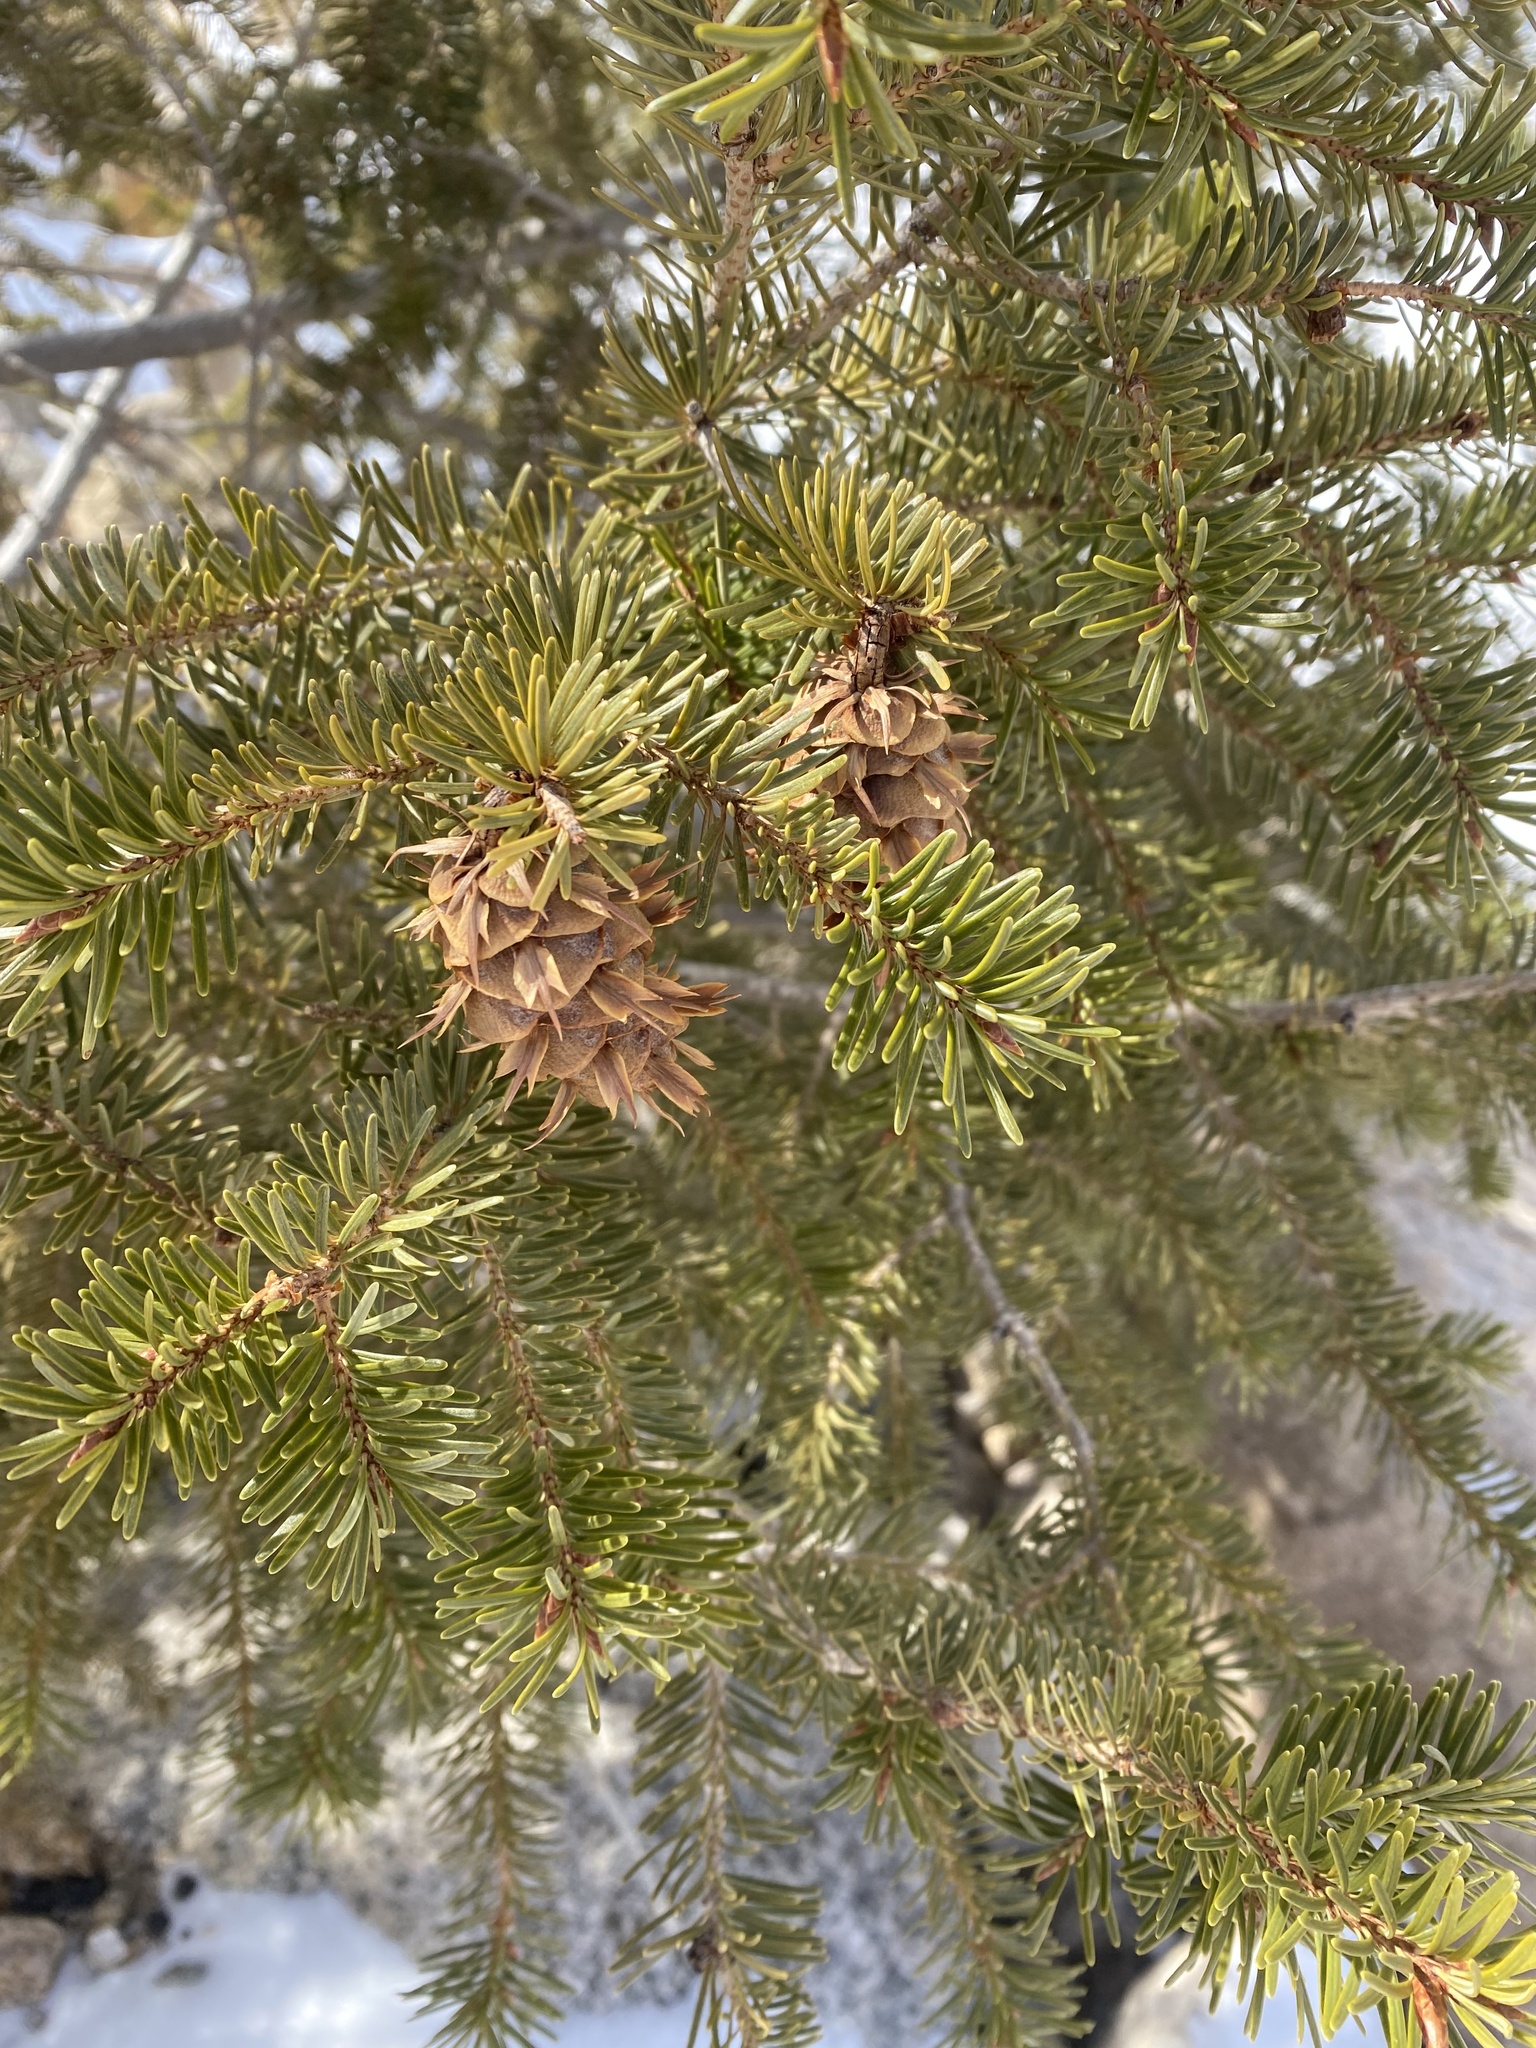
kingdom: Plantae
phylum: Tracheophyta
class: Pinopsida
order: Pinales
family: Pinaceae
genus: Pseudotsuga
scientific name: Pseudotsuga menziesii
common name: Douglas fir
